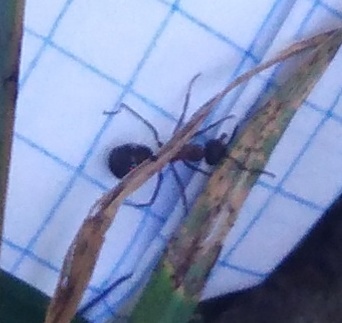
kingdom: Animalia
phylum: Arthropoda
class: Insecta
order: Hymenoptera
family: Formicidae
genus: Formica
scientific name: Formica
